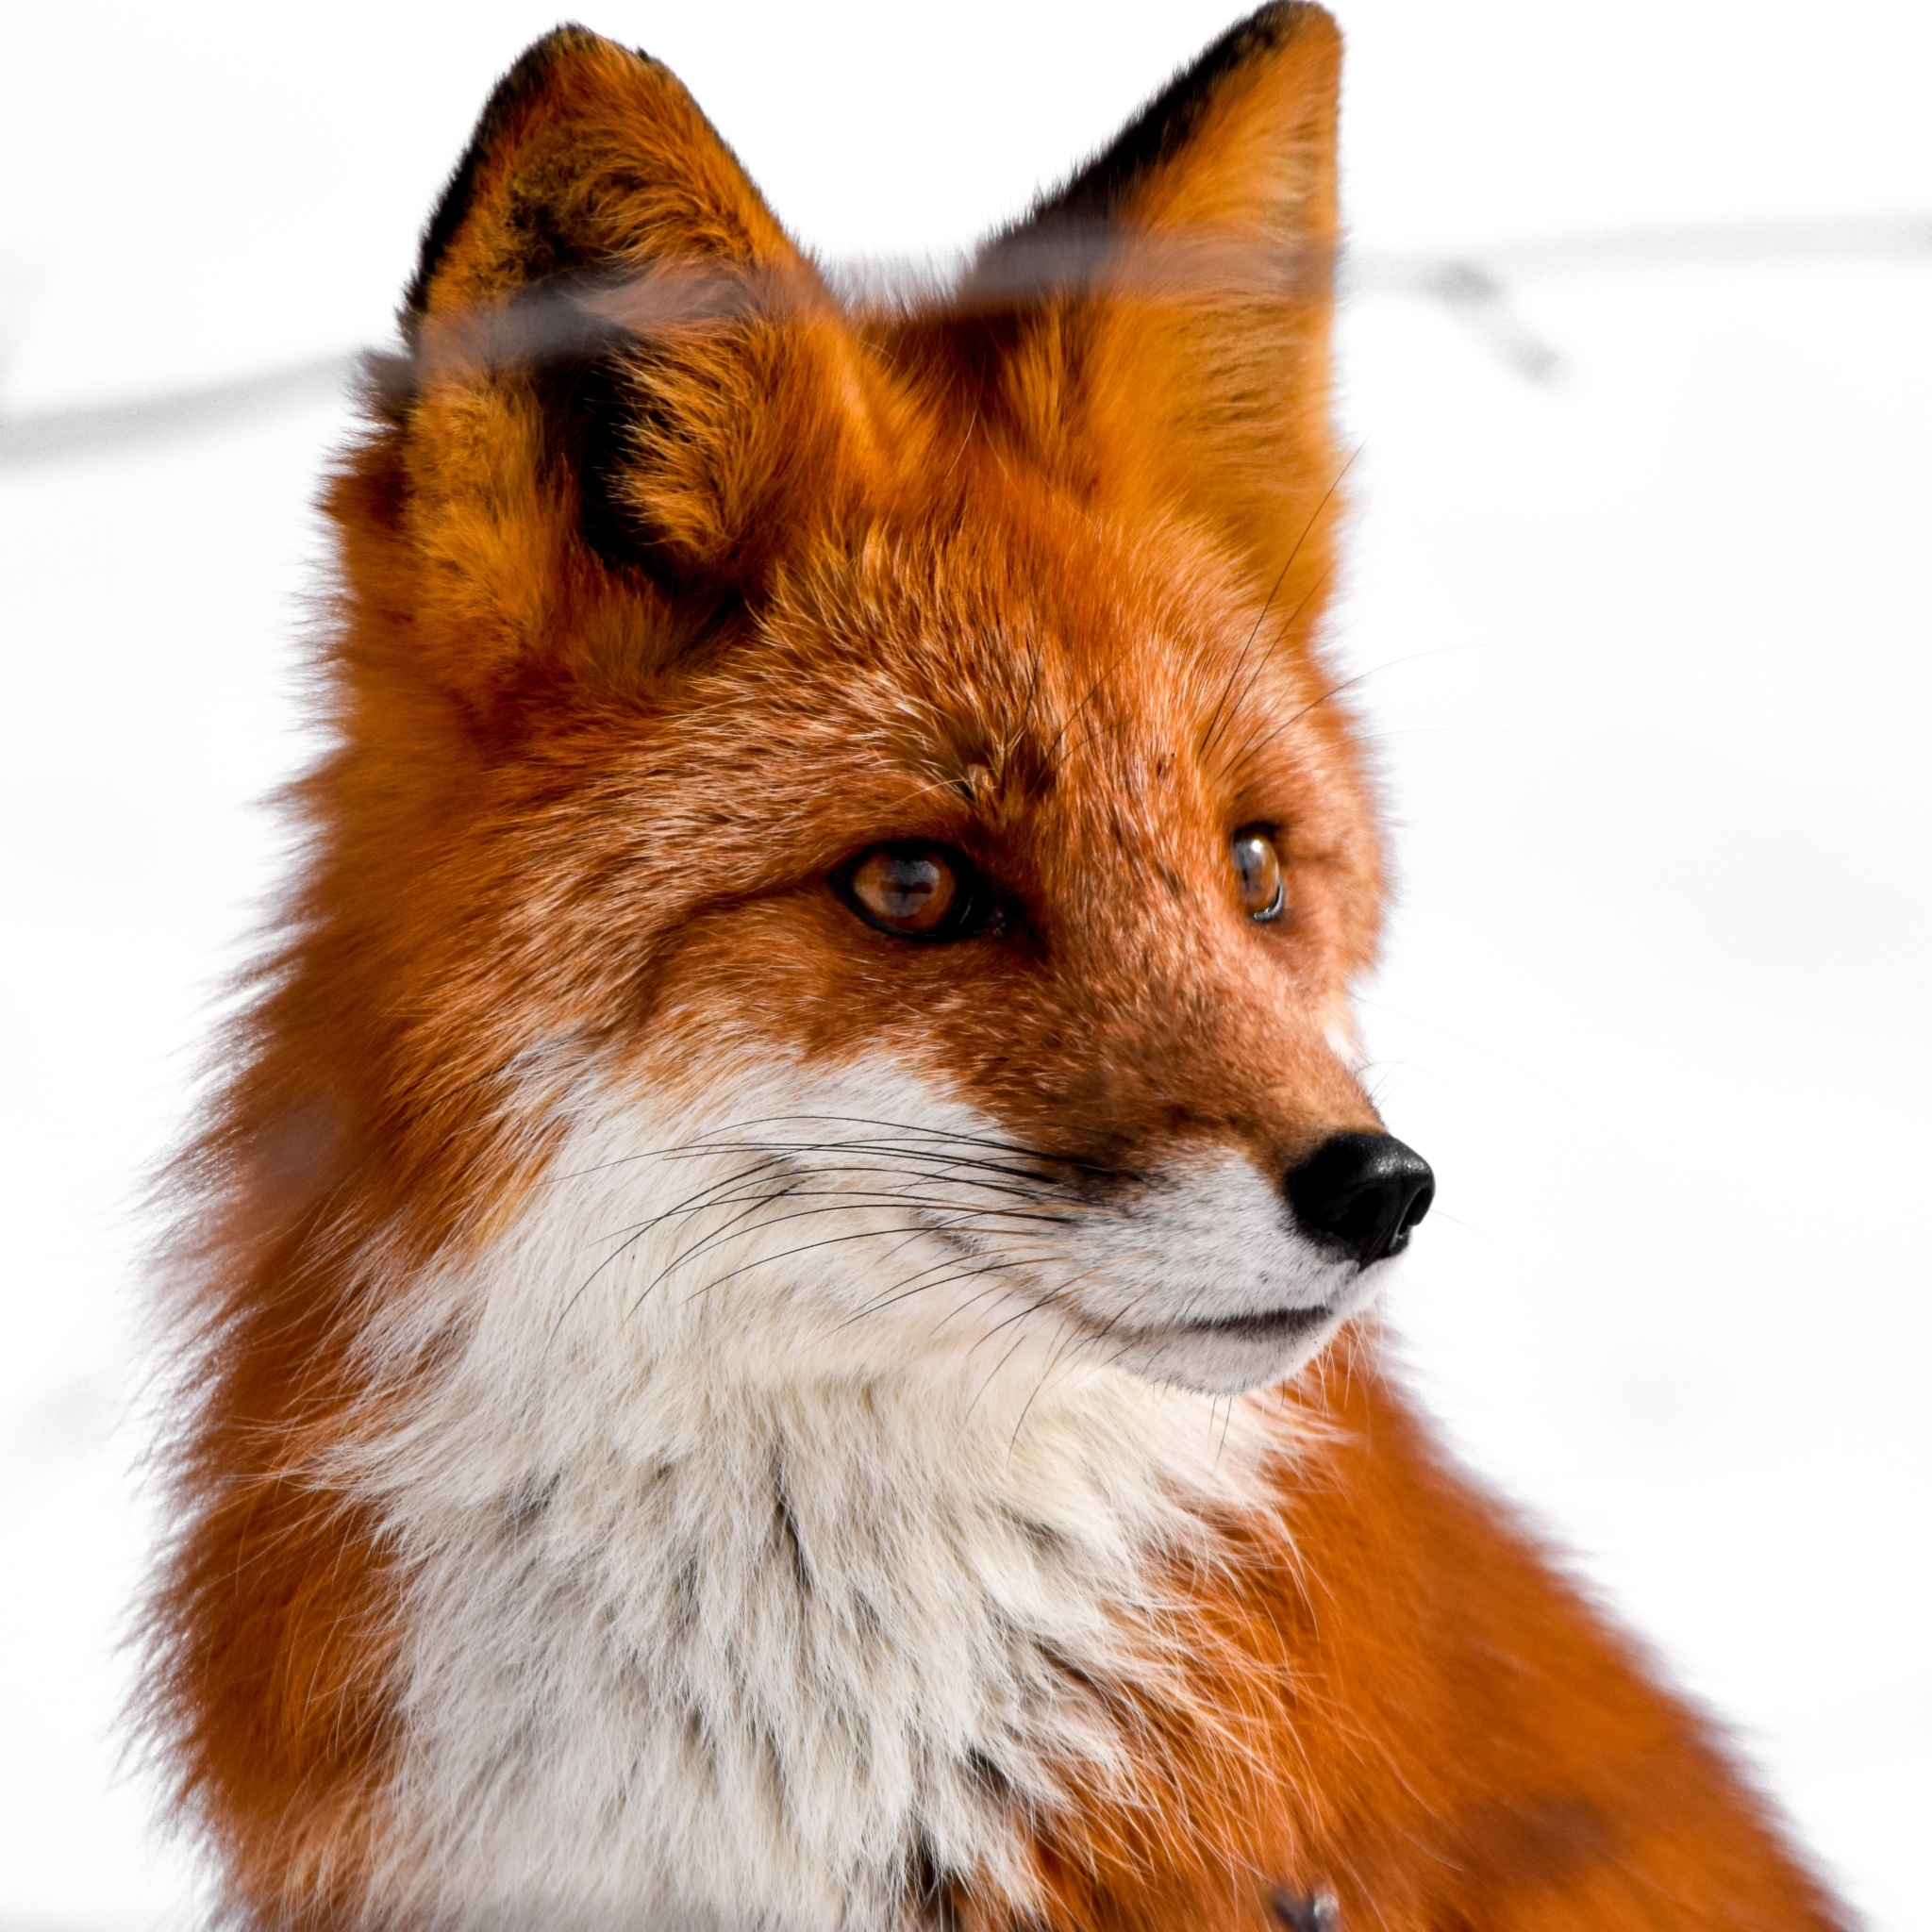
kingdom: Animalia
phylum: Chordata
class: Mammalia
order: Carnivora
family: Canidae
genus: Vulpes
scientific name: Vulpes vulpes
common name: Red fox
